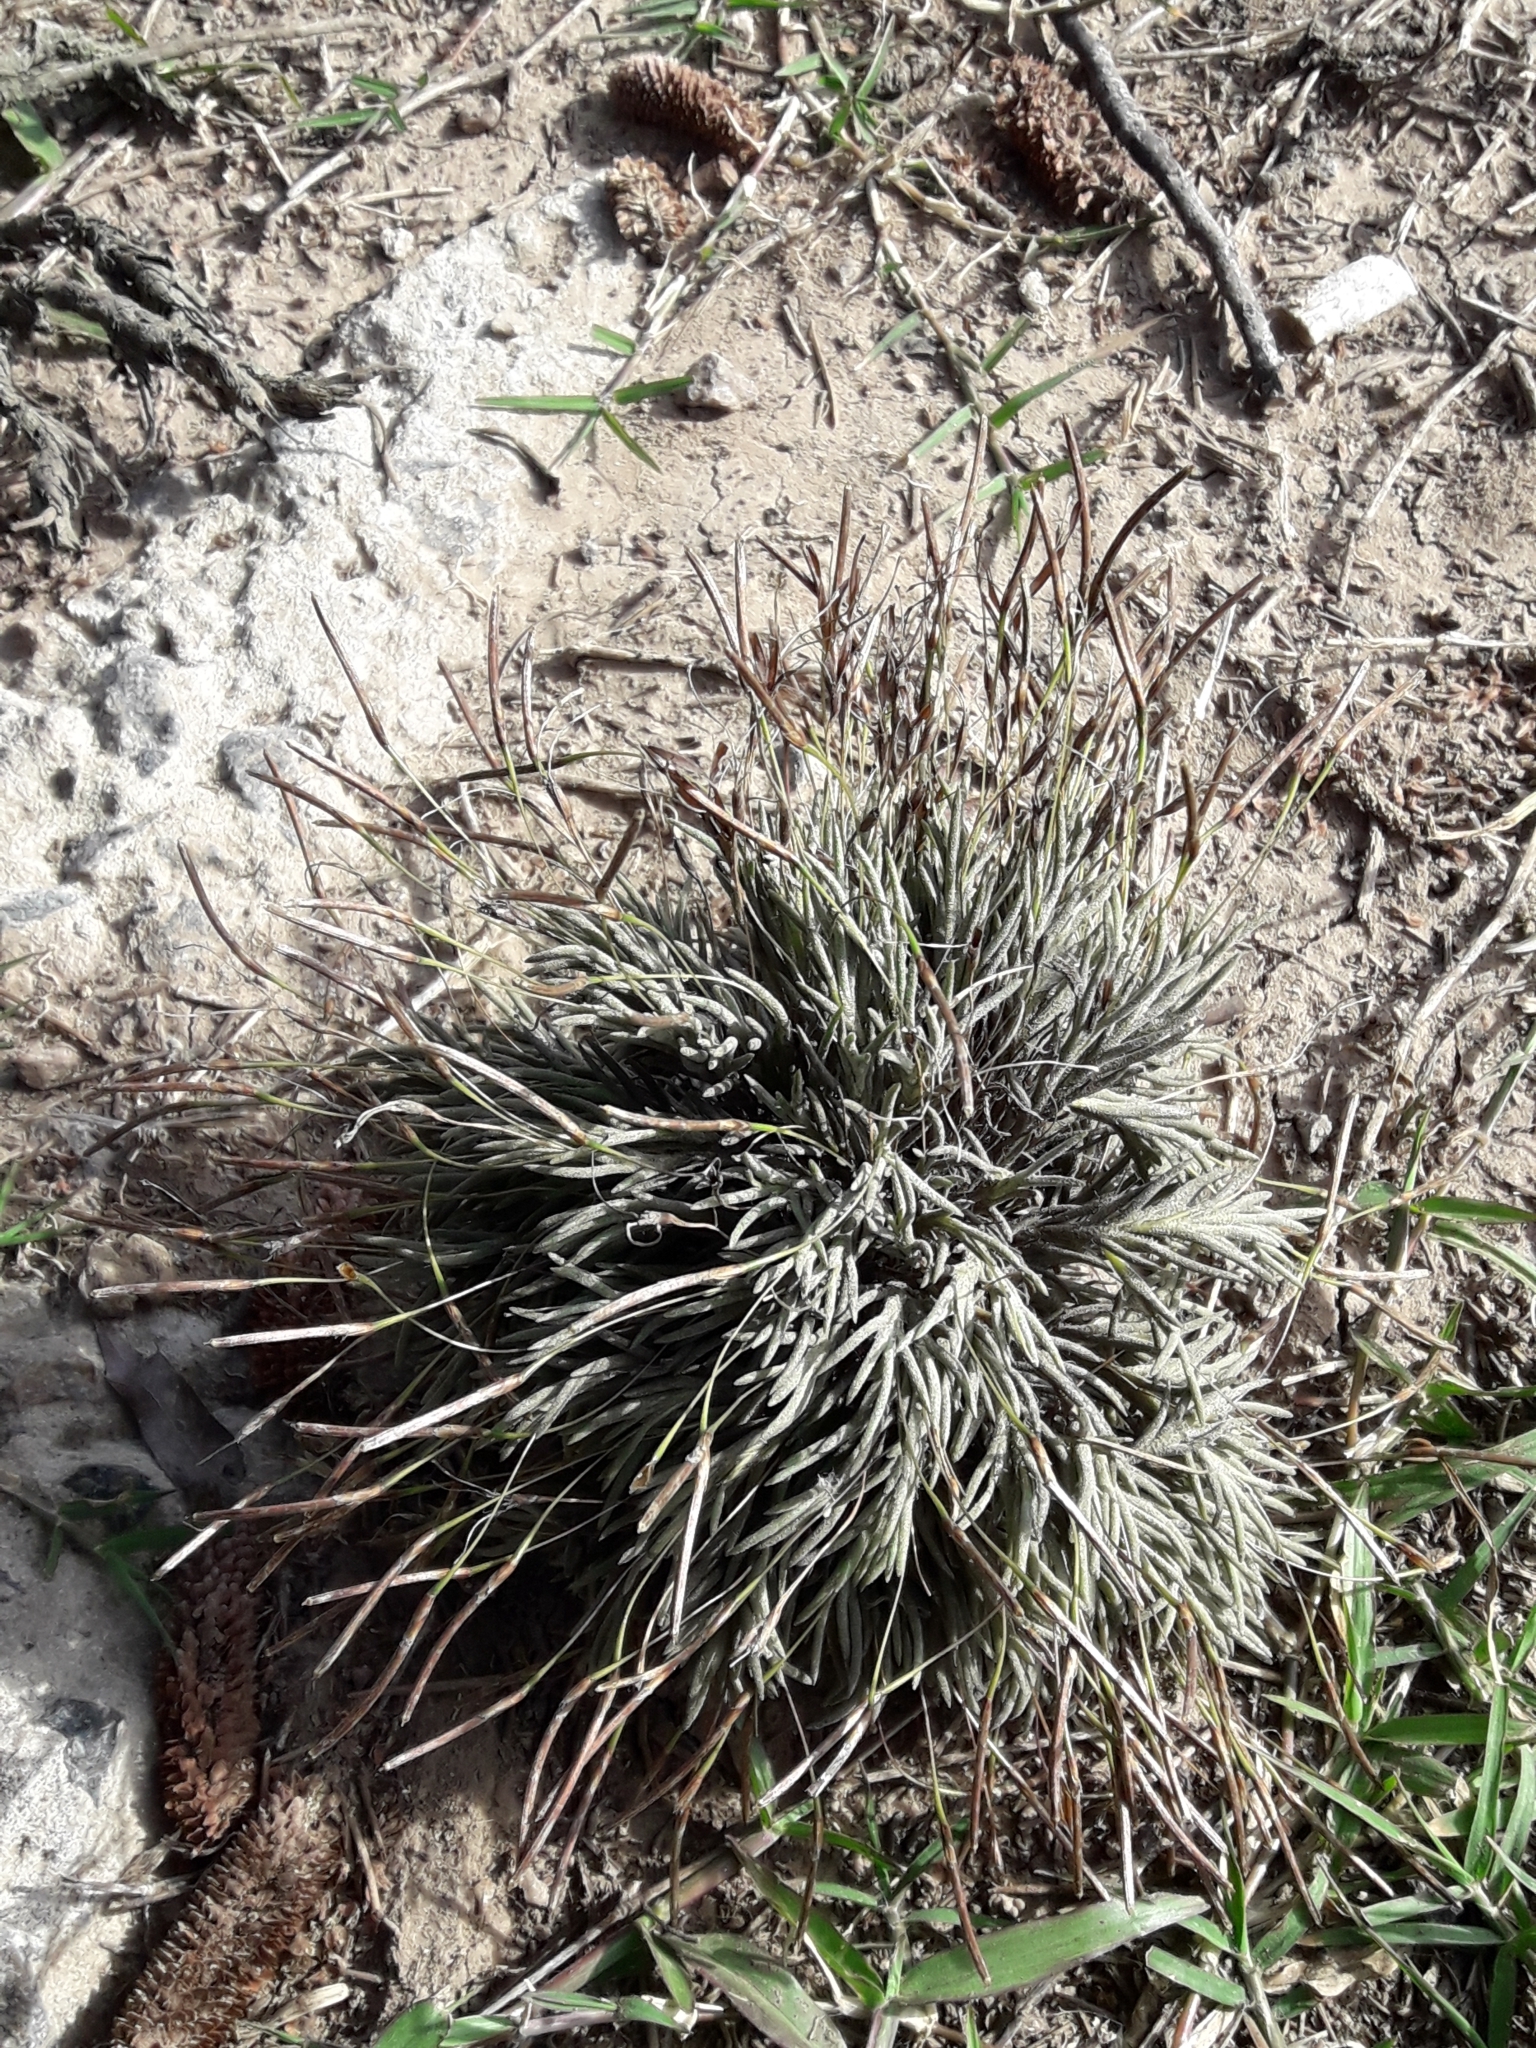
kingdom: Plantae
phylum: Tracheophyta
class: Liliopsida
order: Poales
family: Bromeliaceae
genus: Tillandsia
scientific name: Tillandsia recurvata
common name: Small ballmoss
